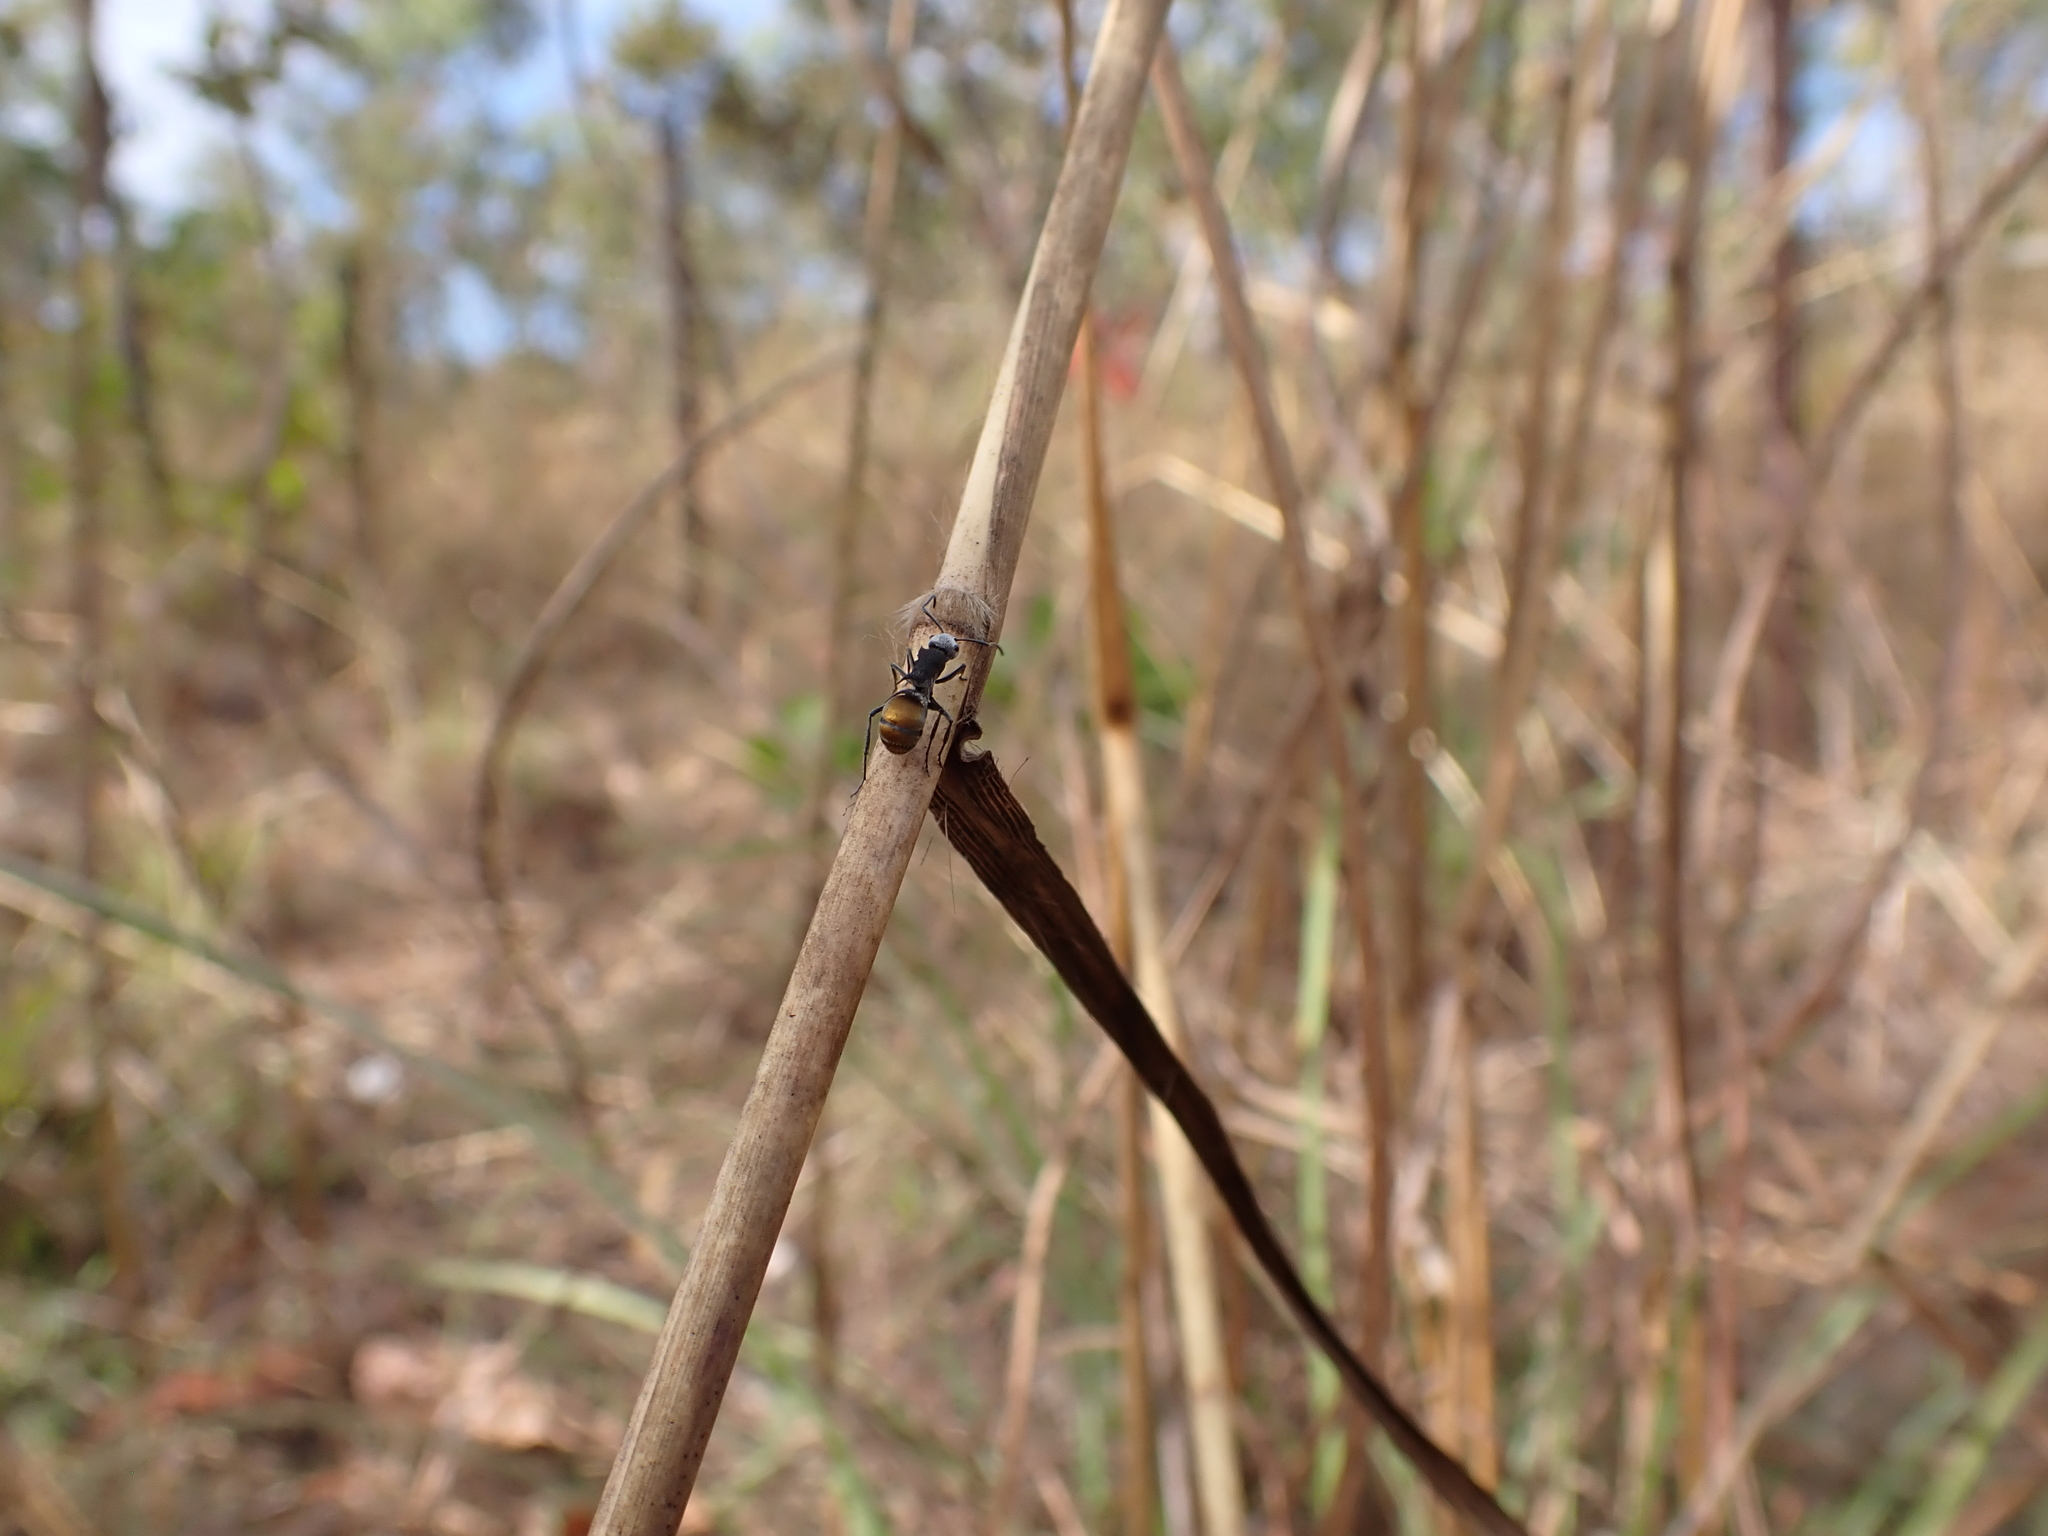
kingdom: Animalia
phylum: Arthropoda
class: Insecta
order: Hymenoptera
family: Formicidae
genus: Polyrhachis
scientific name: Polyrhachis senilis
